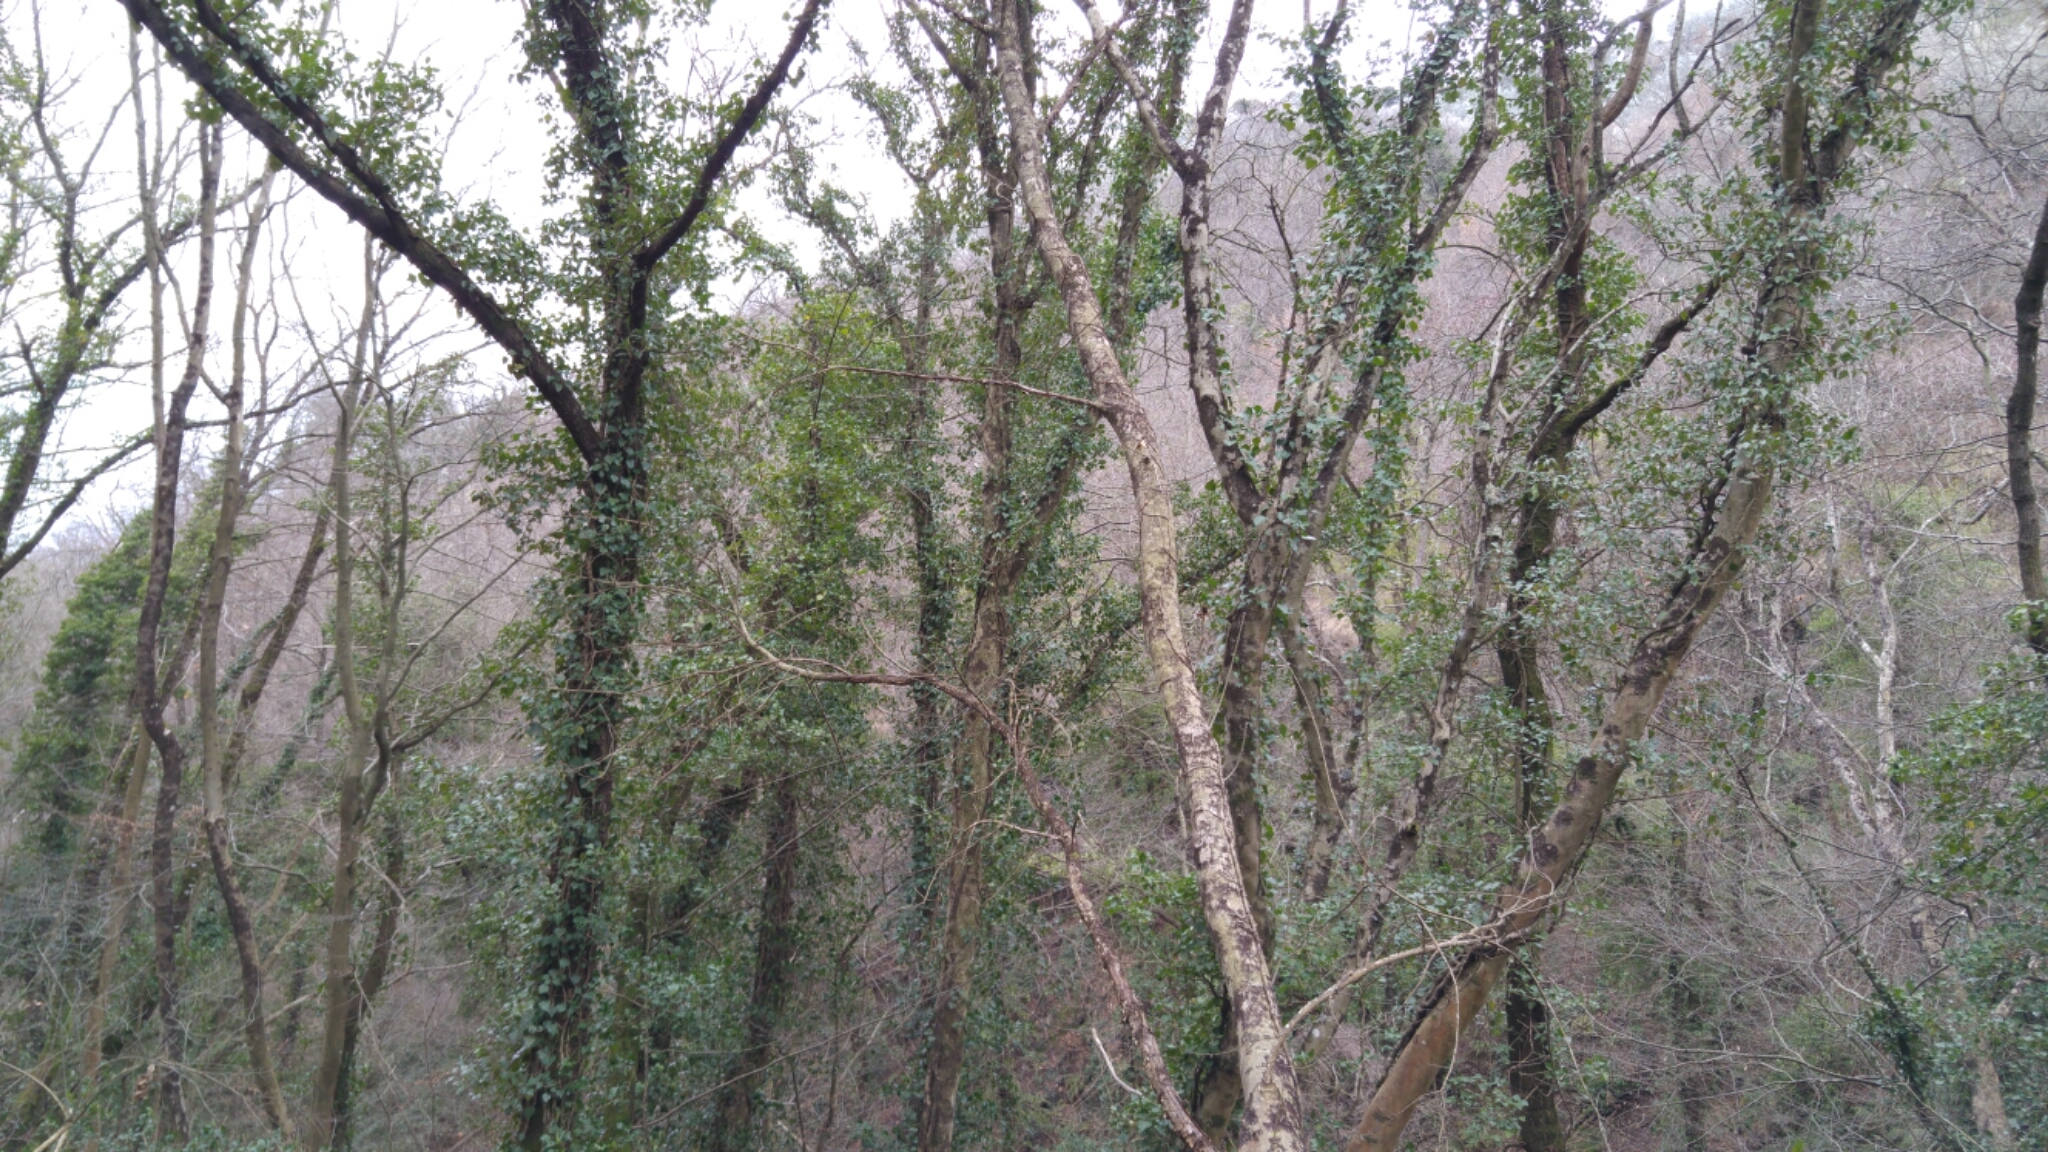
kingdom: Plantae
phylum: Tracheophyta
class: Magnoliopsida
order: Apiales
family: Araliaceae
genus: Hedera
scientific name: Hedera helix
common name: Ivy
